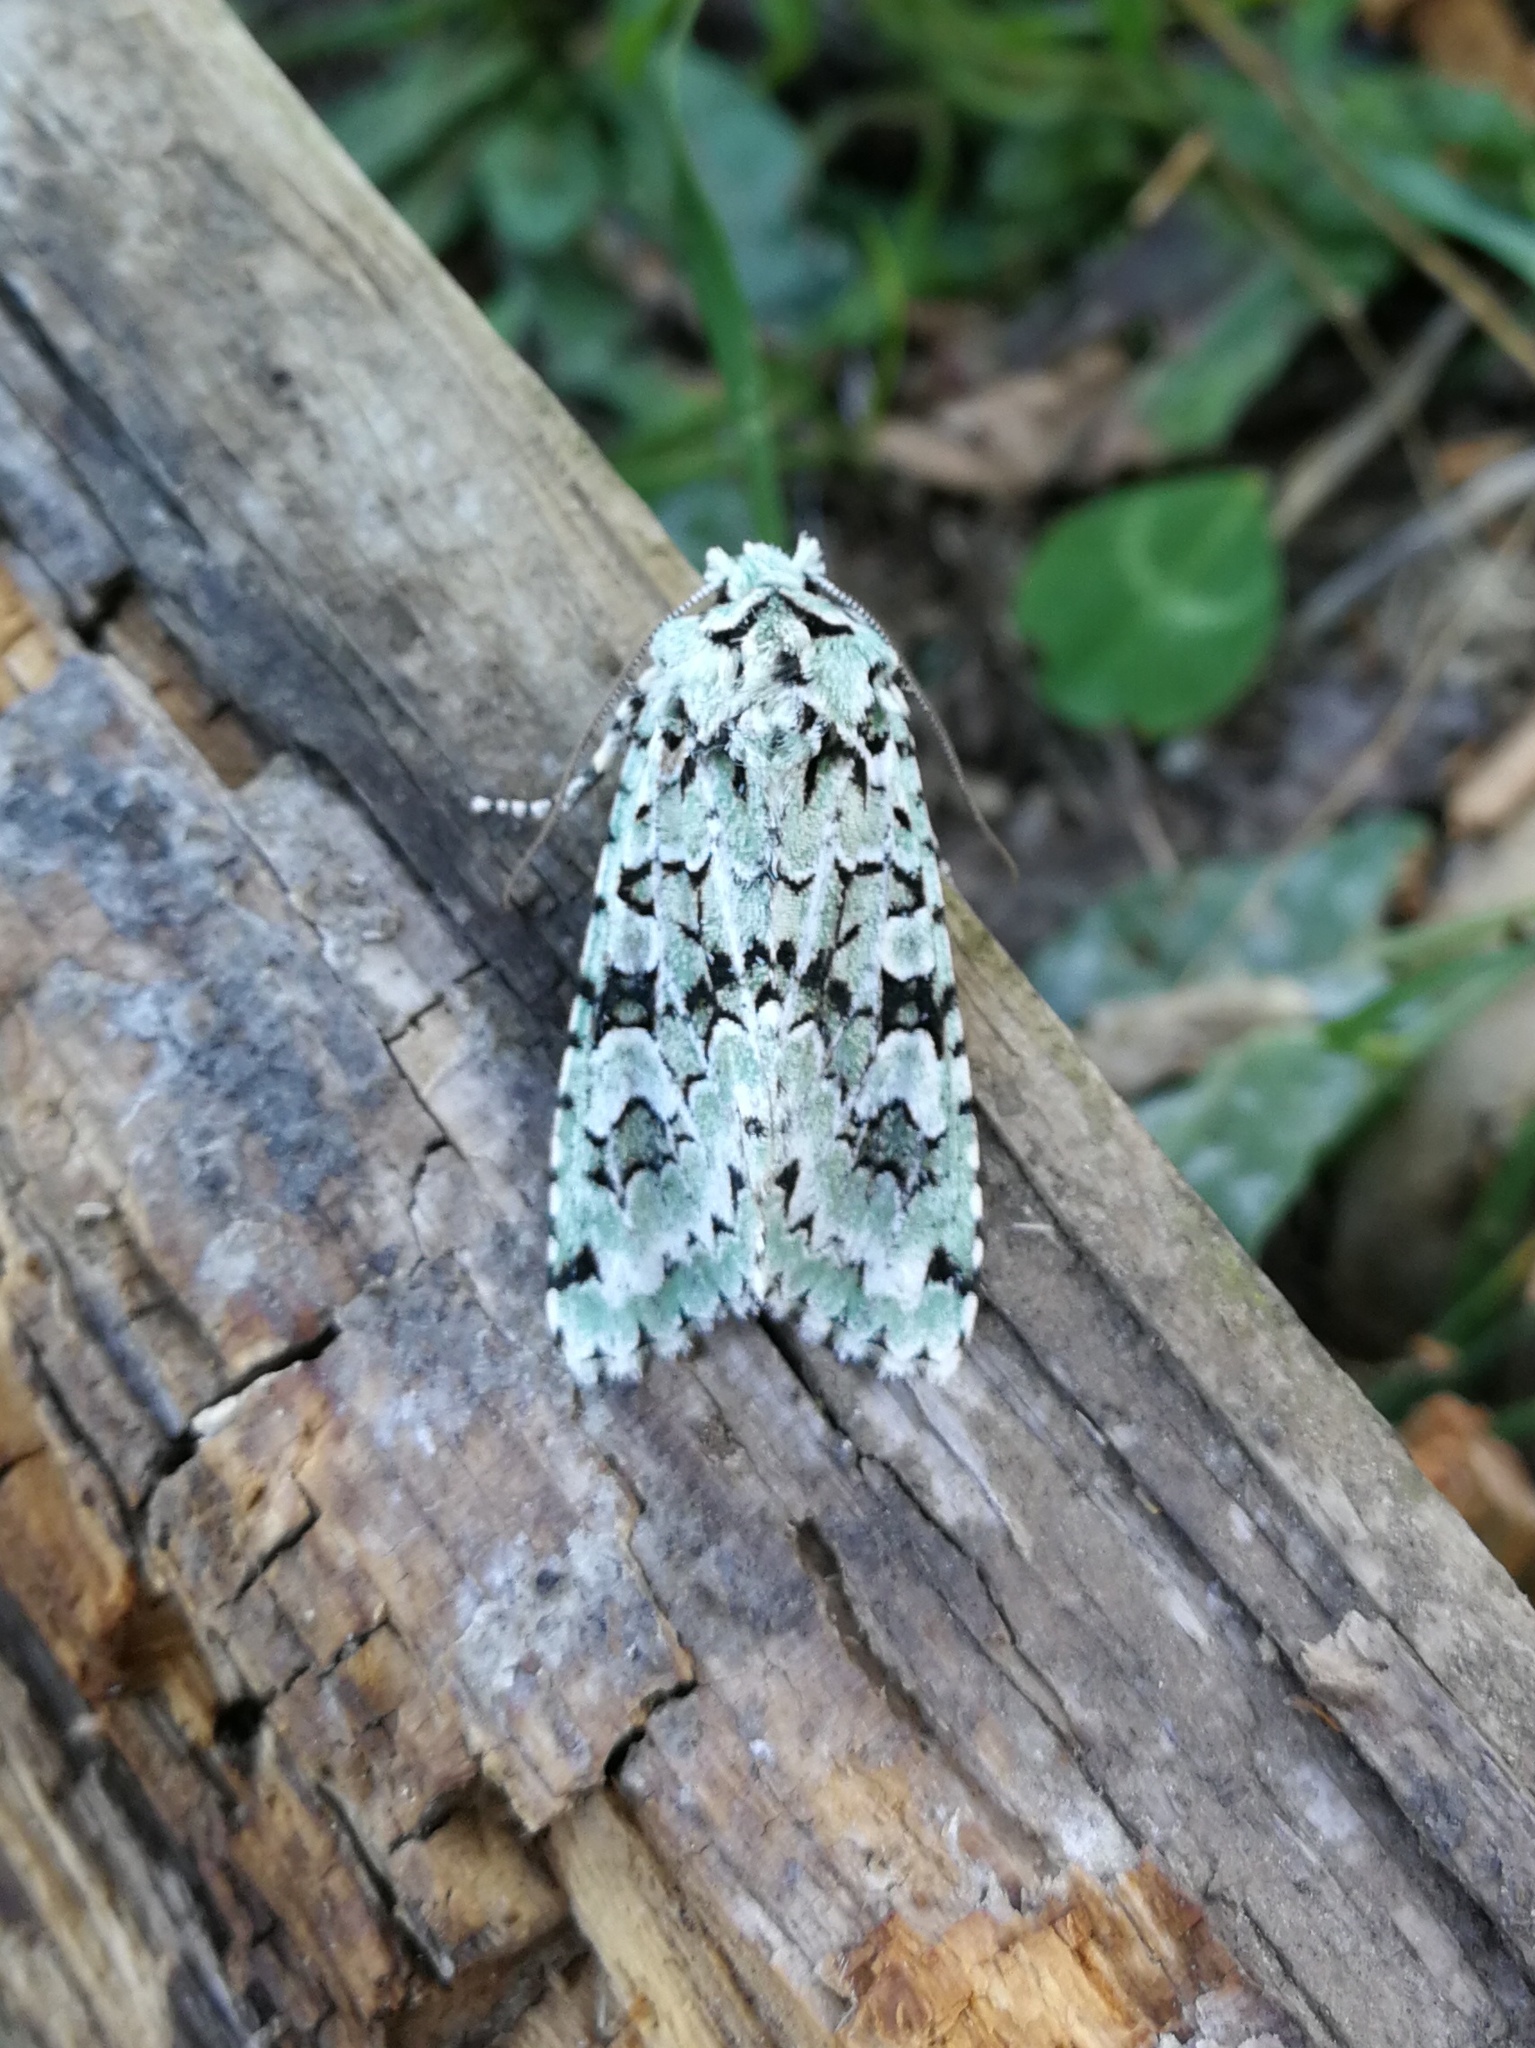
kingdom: Animalia
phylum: Arthropoda
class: Insecta
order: Lepidoptera
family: Noctuidae
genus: Griposia
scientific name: Griposia aprilina
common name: Merveille du jour
